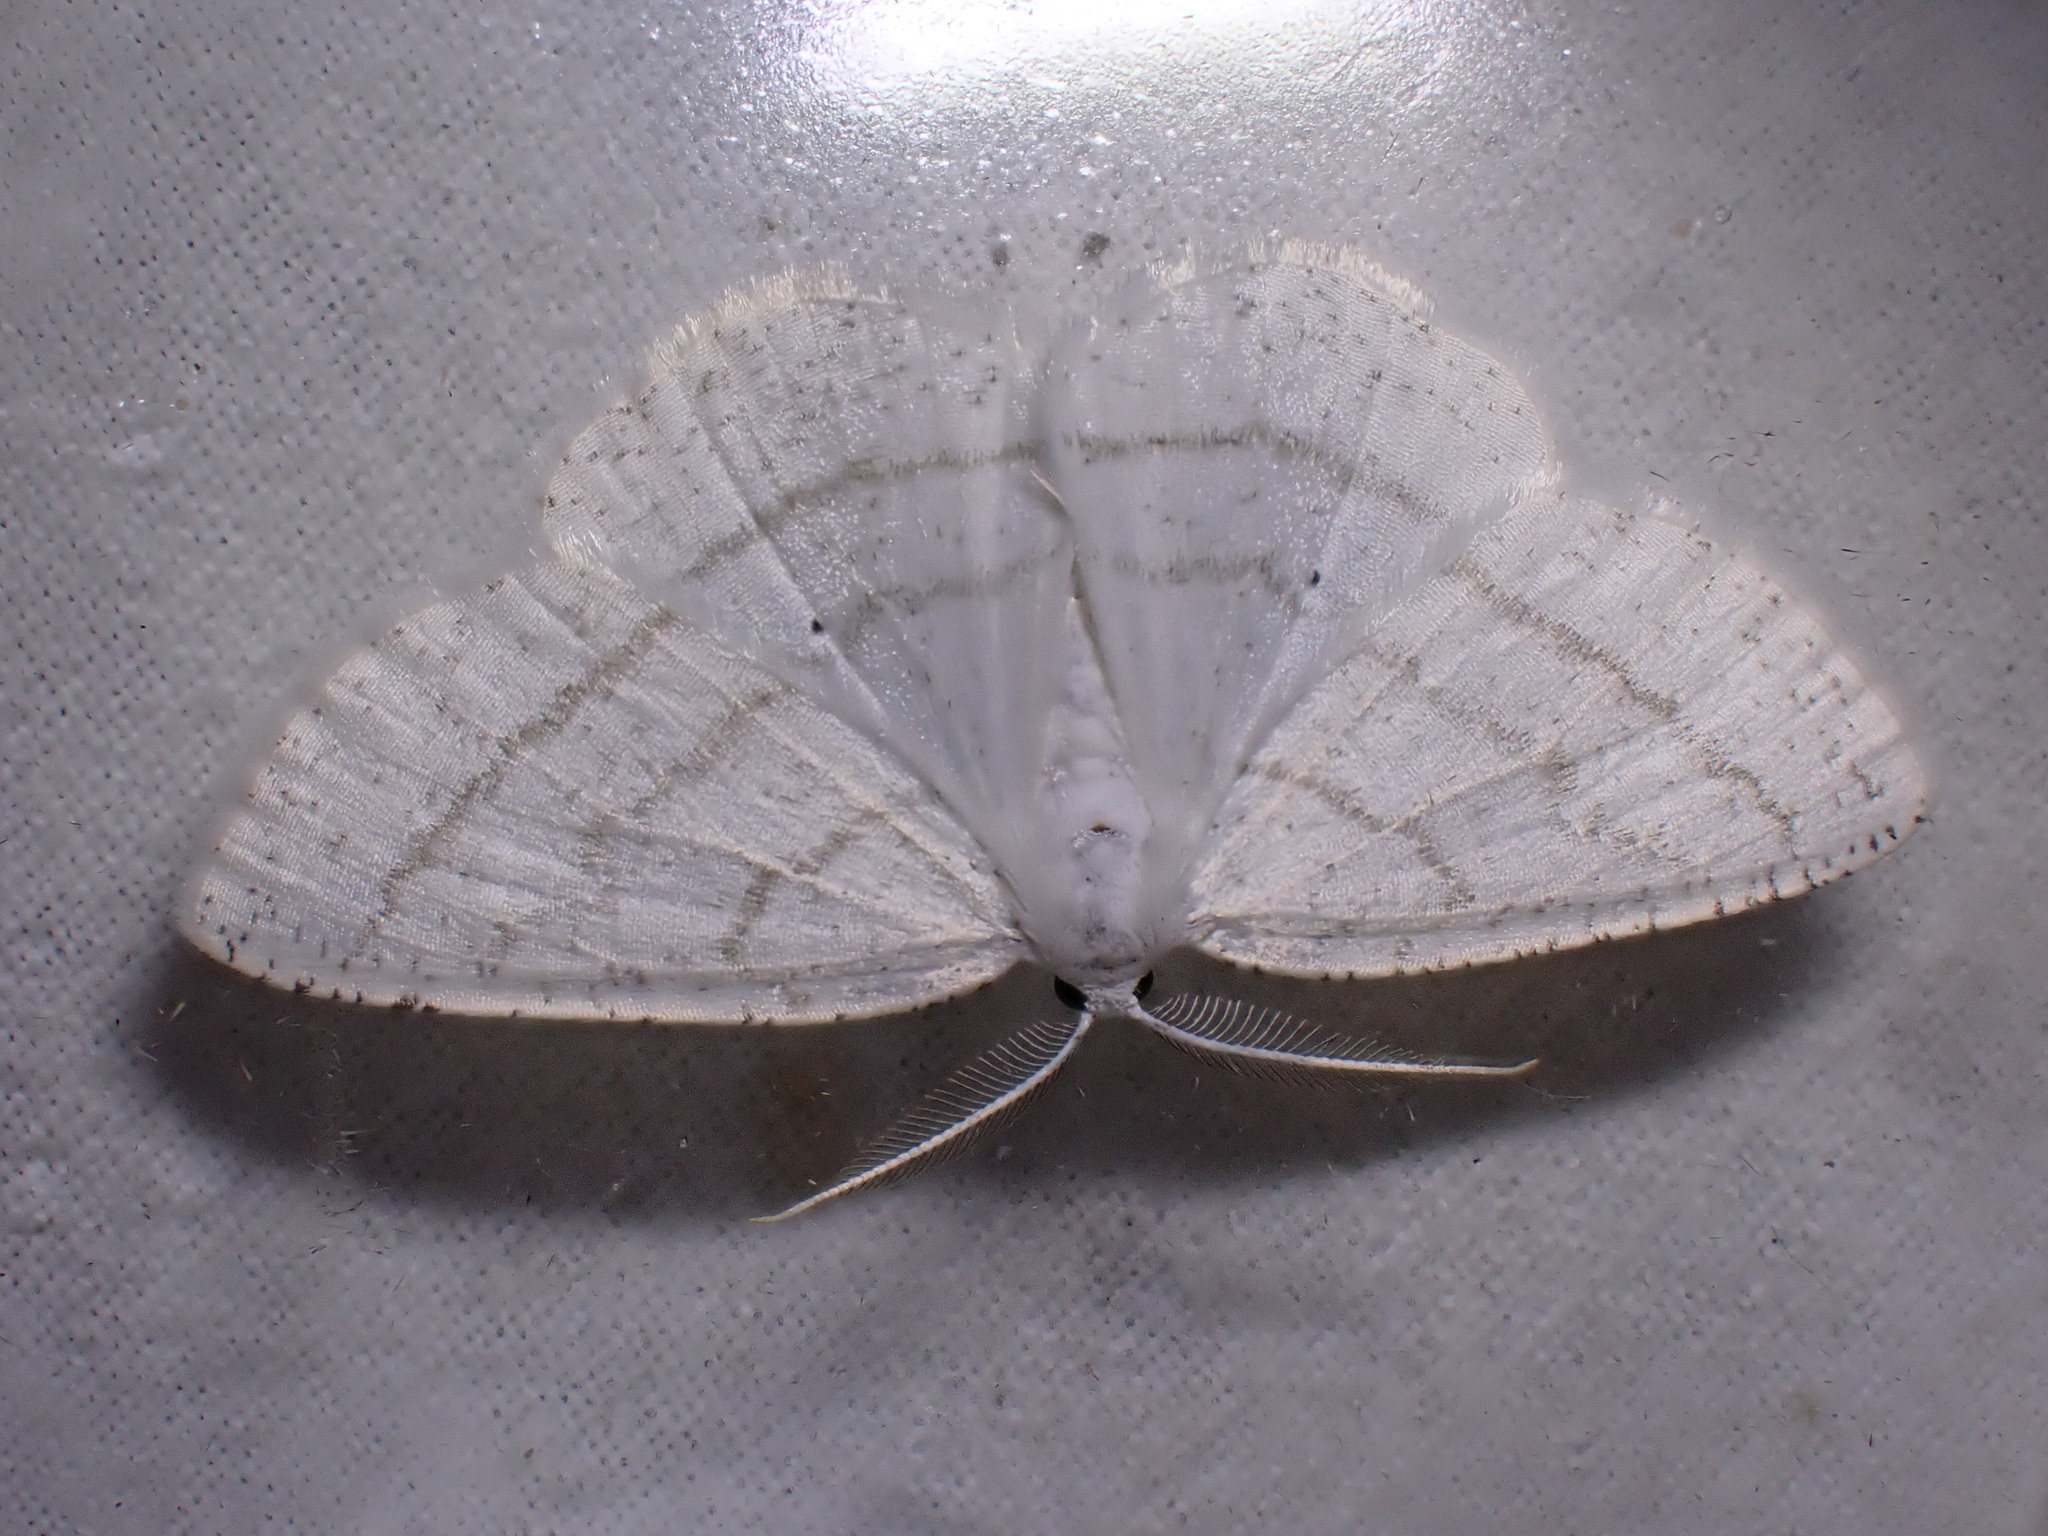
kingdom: Animalia
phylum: Arthropoda
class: Insecta
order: Lepidoptera
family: Geometridae
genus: Cabera
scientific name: Cabera pusaria
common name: Common white wave
